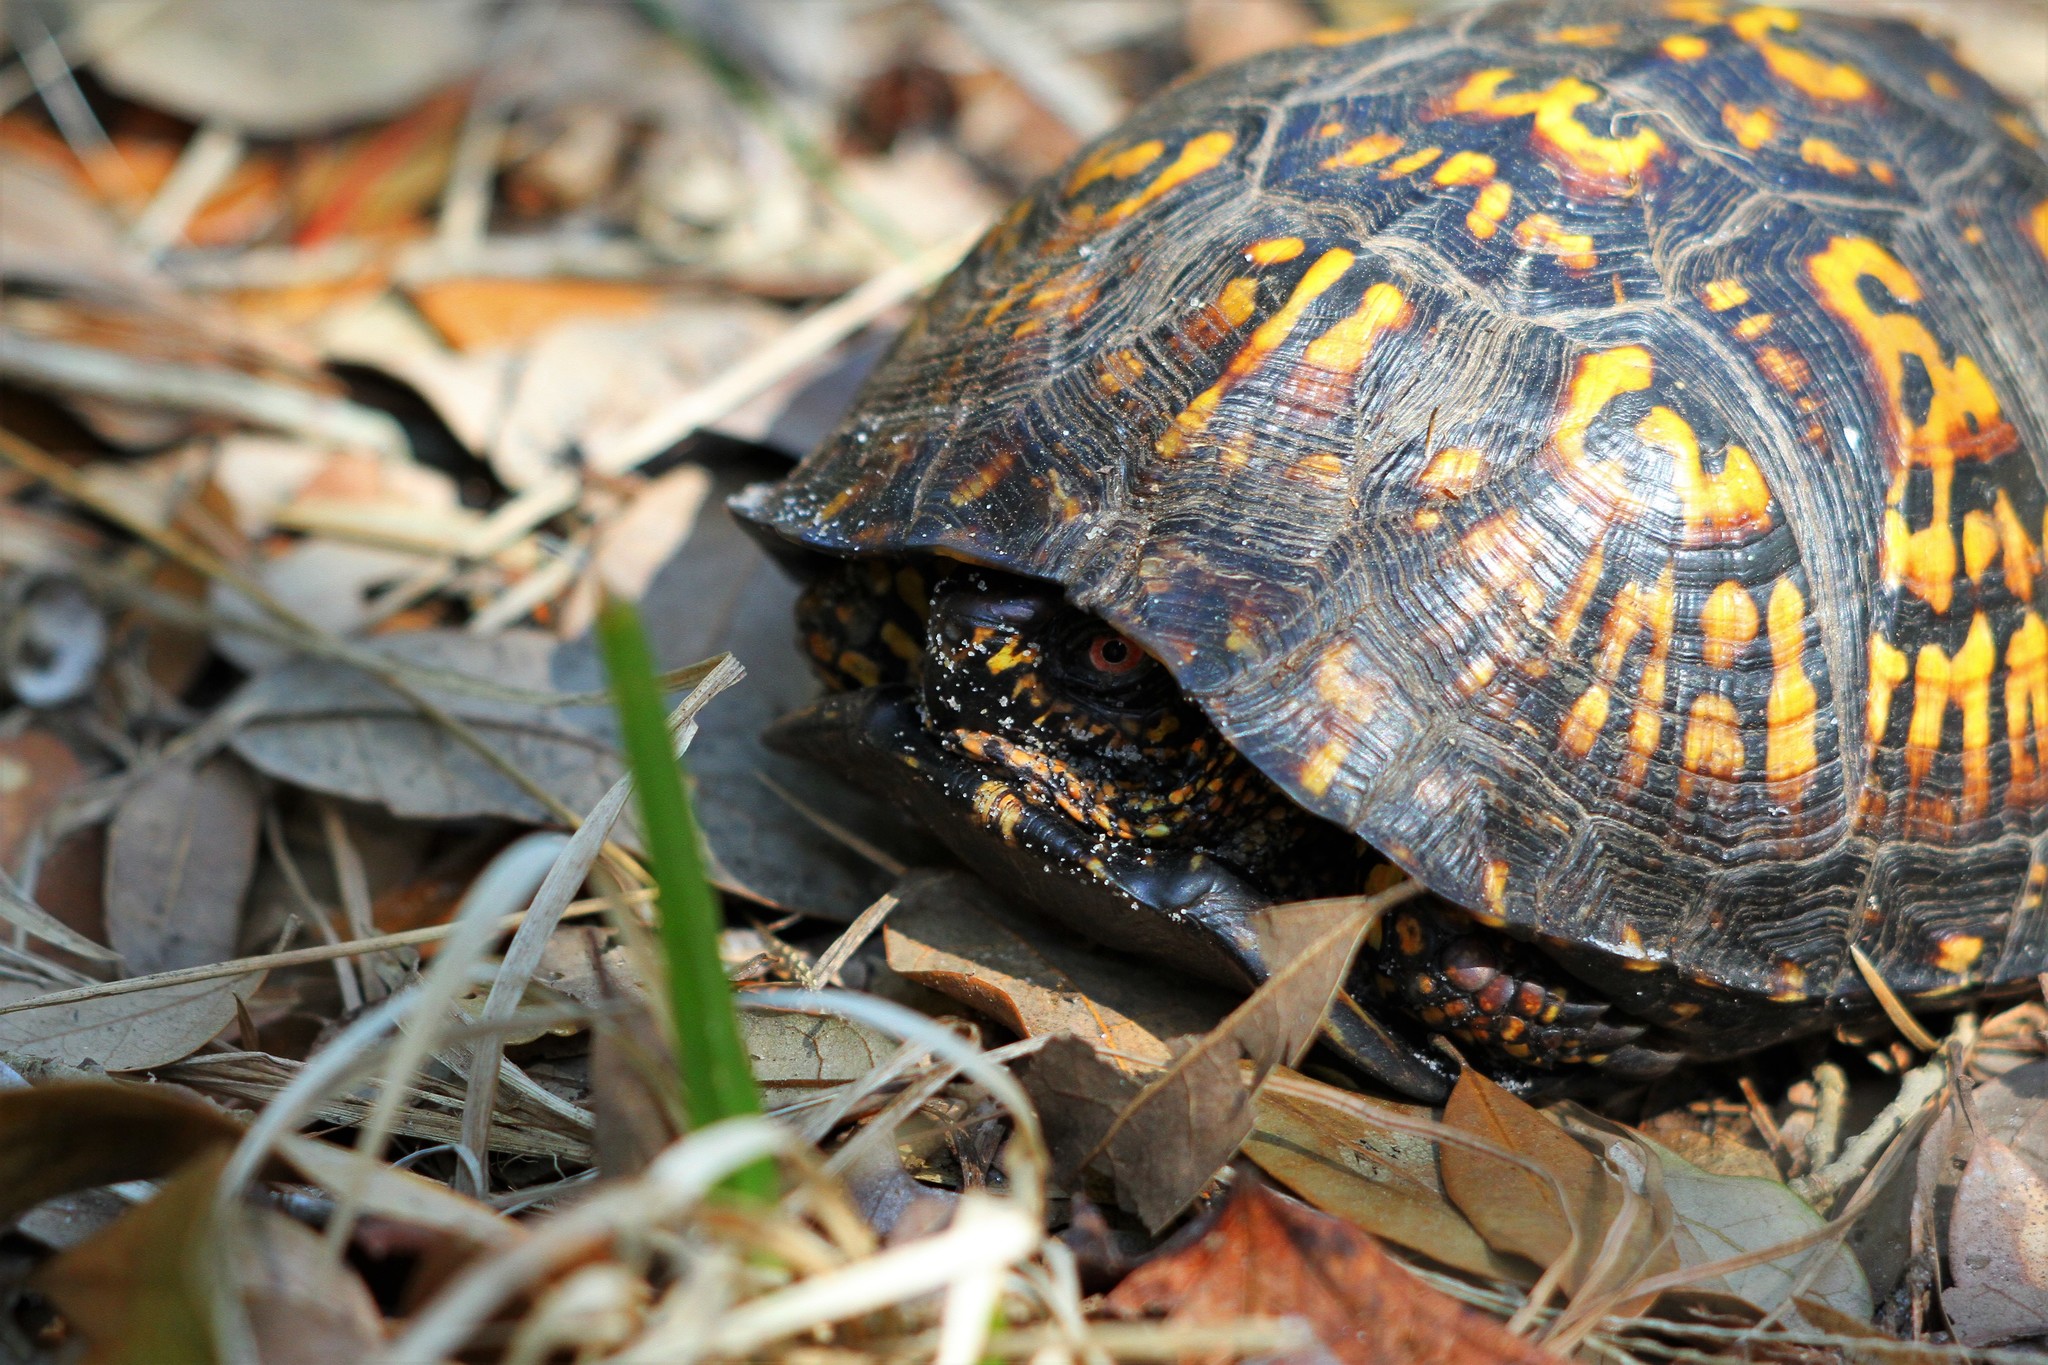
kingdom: Animalia
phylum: Chordata
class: Testudines
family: Emydidae
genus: Terrapene
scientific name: Terrapene carolina
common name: Common box turtle
